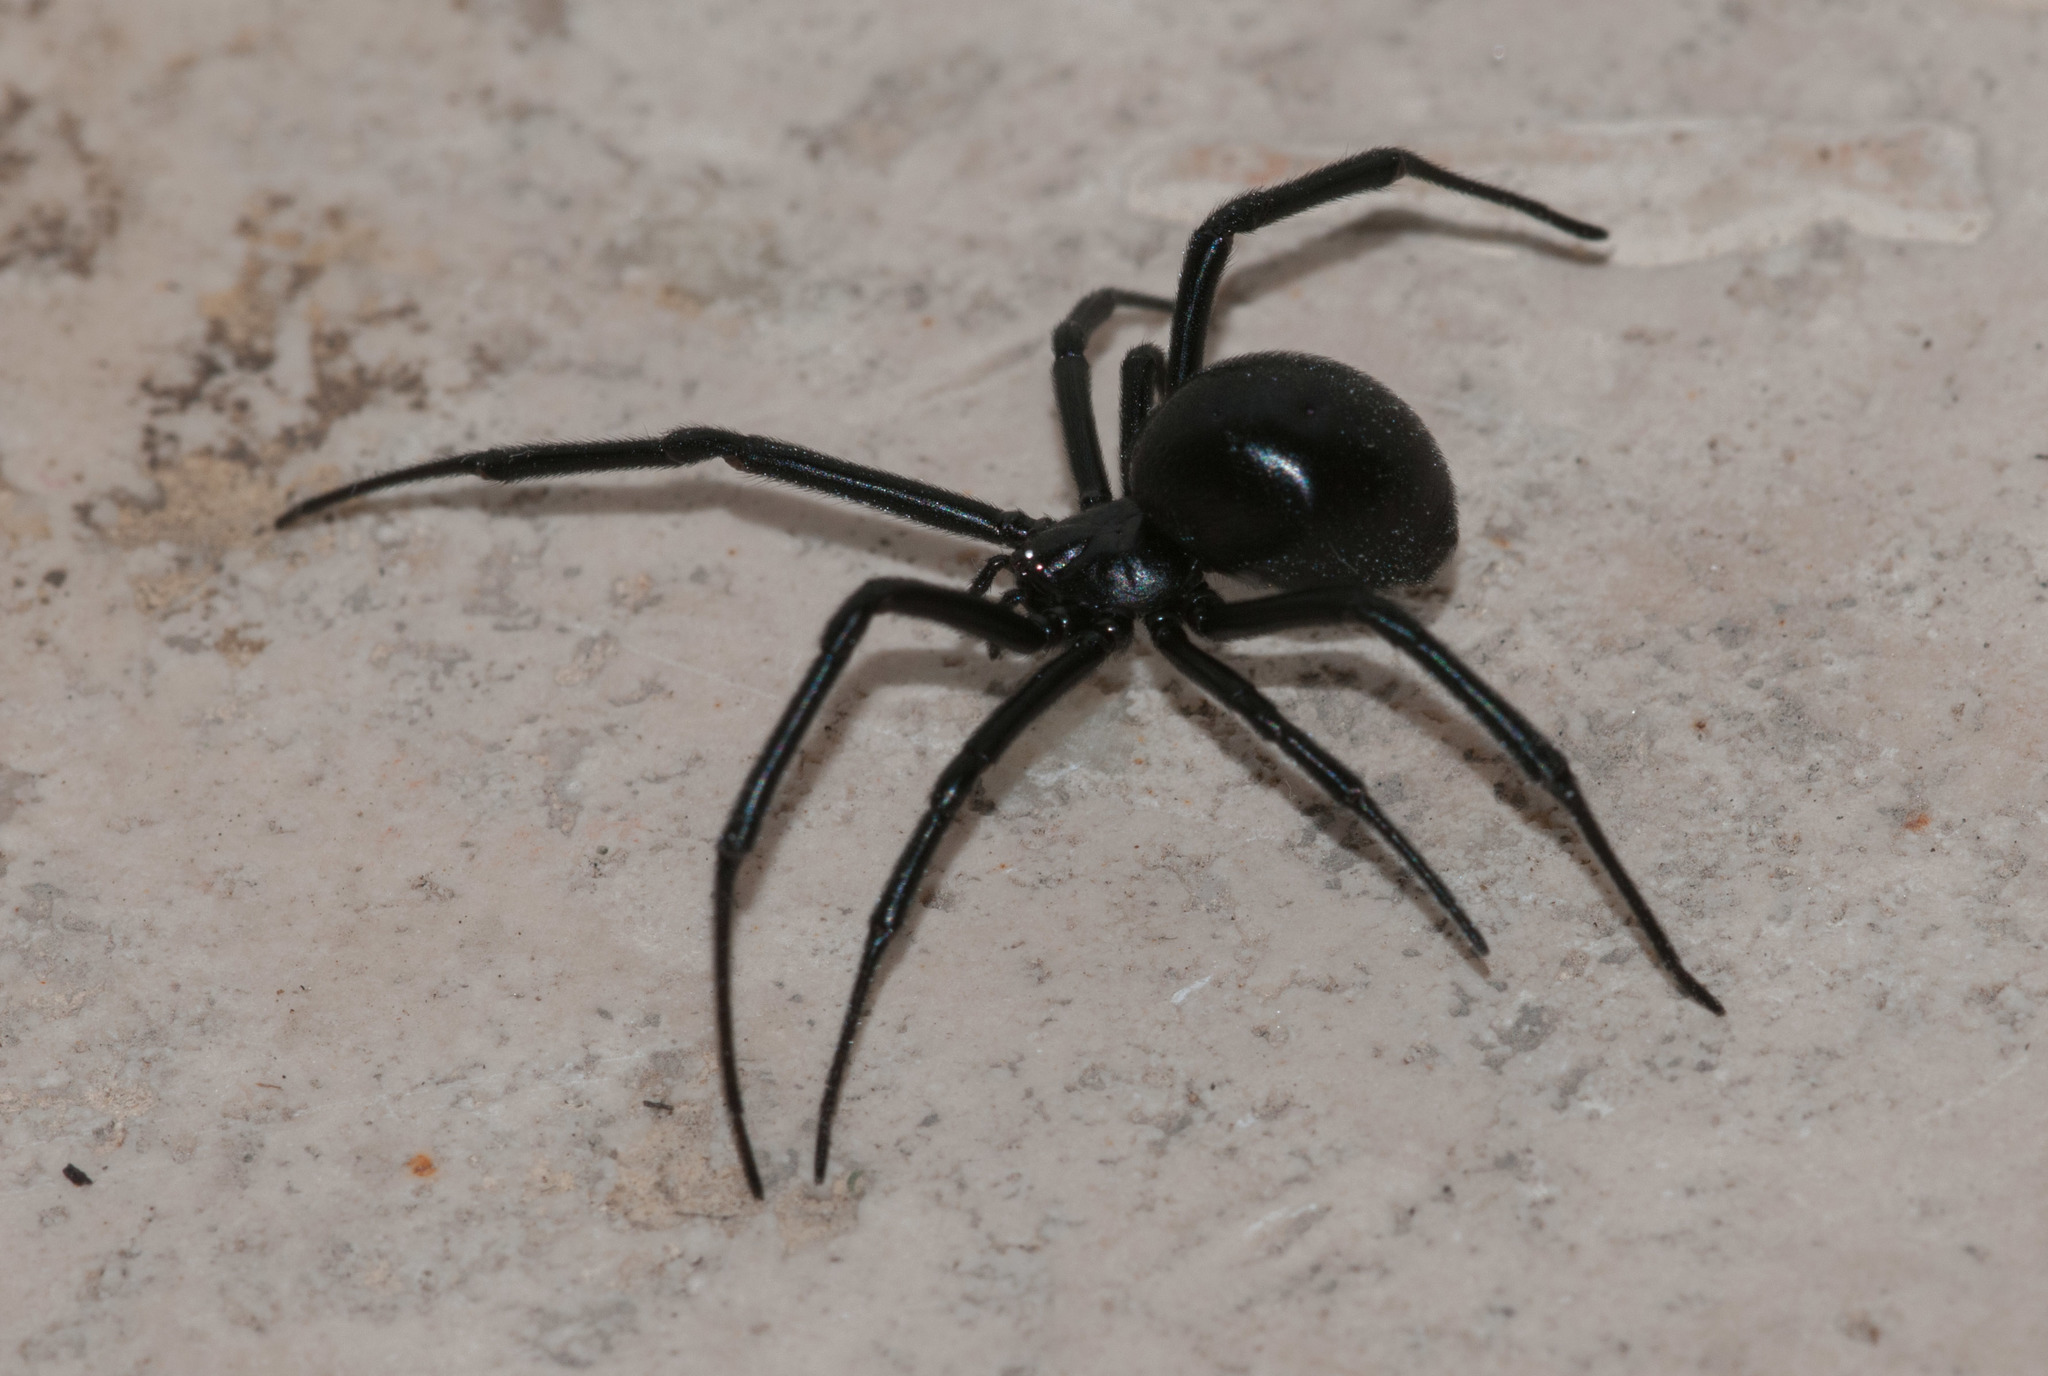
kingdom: Animalia
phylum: Arthropoda
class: Arachnida
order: Araneae
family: Theridiidae
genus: Latrodectus
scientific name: Latrodectus hesperus
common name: Western black widow
